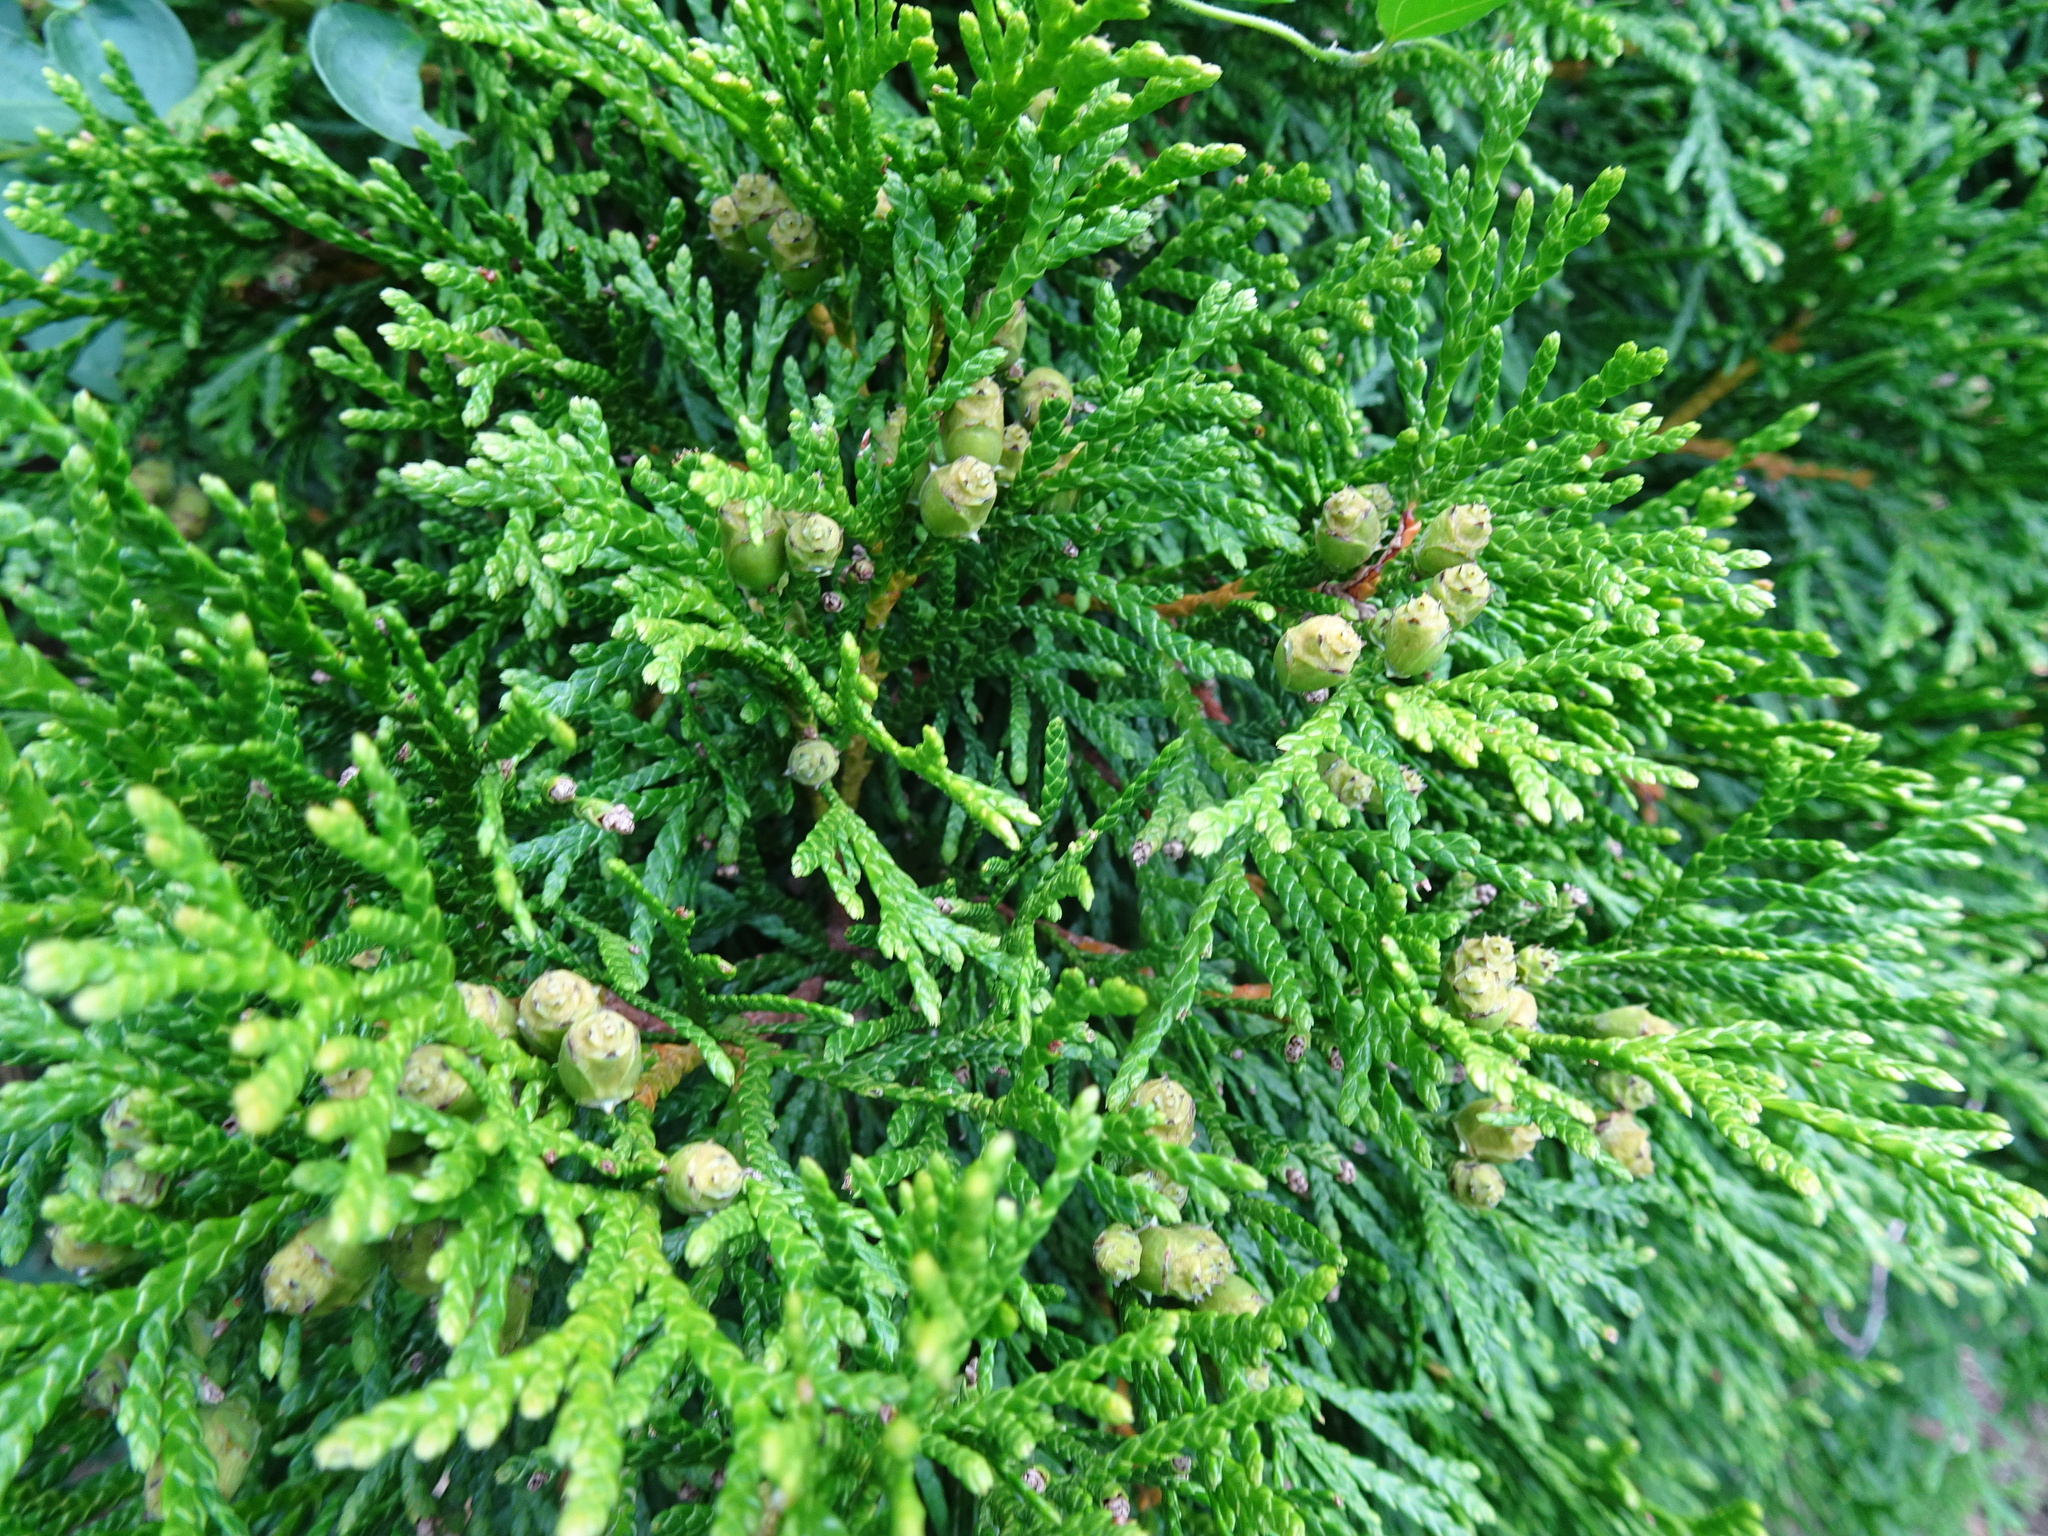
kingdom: Plantae
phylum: Tracheophyta
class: Pinopsida
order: Pinales
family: Cupressaceae
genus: Thuja
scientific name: Thuja occidentalis
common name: Northern white-cedar
